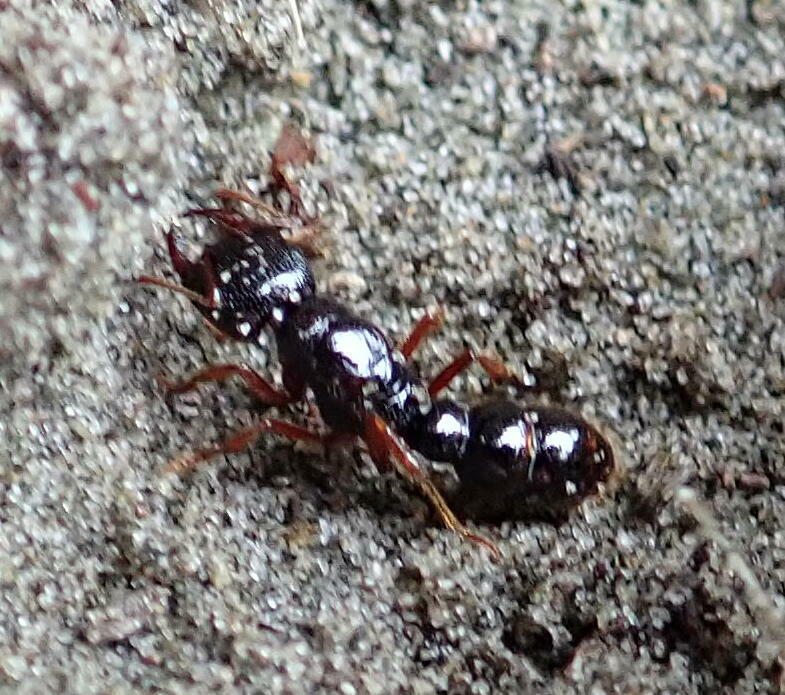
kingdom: Animalia
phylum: Arthropoda
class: Insecta
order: Hymenoptera
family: Formicidae
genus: Amblyopone
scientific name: Amblyopone australis
